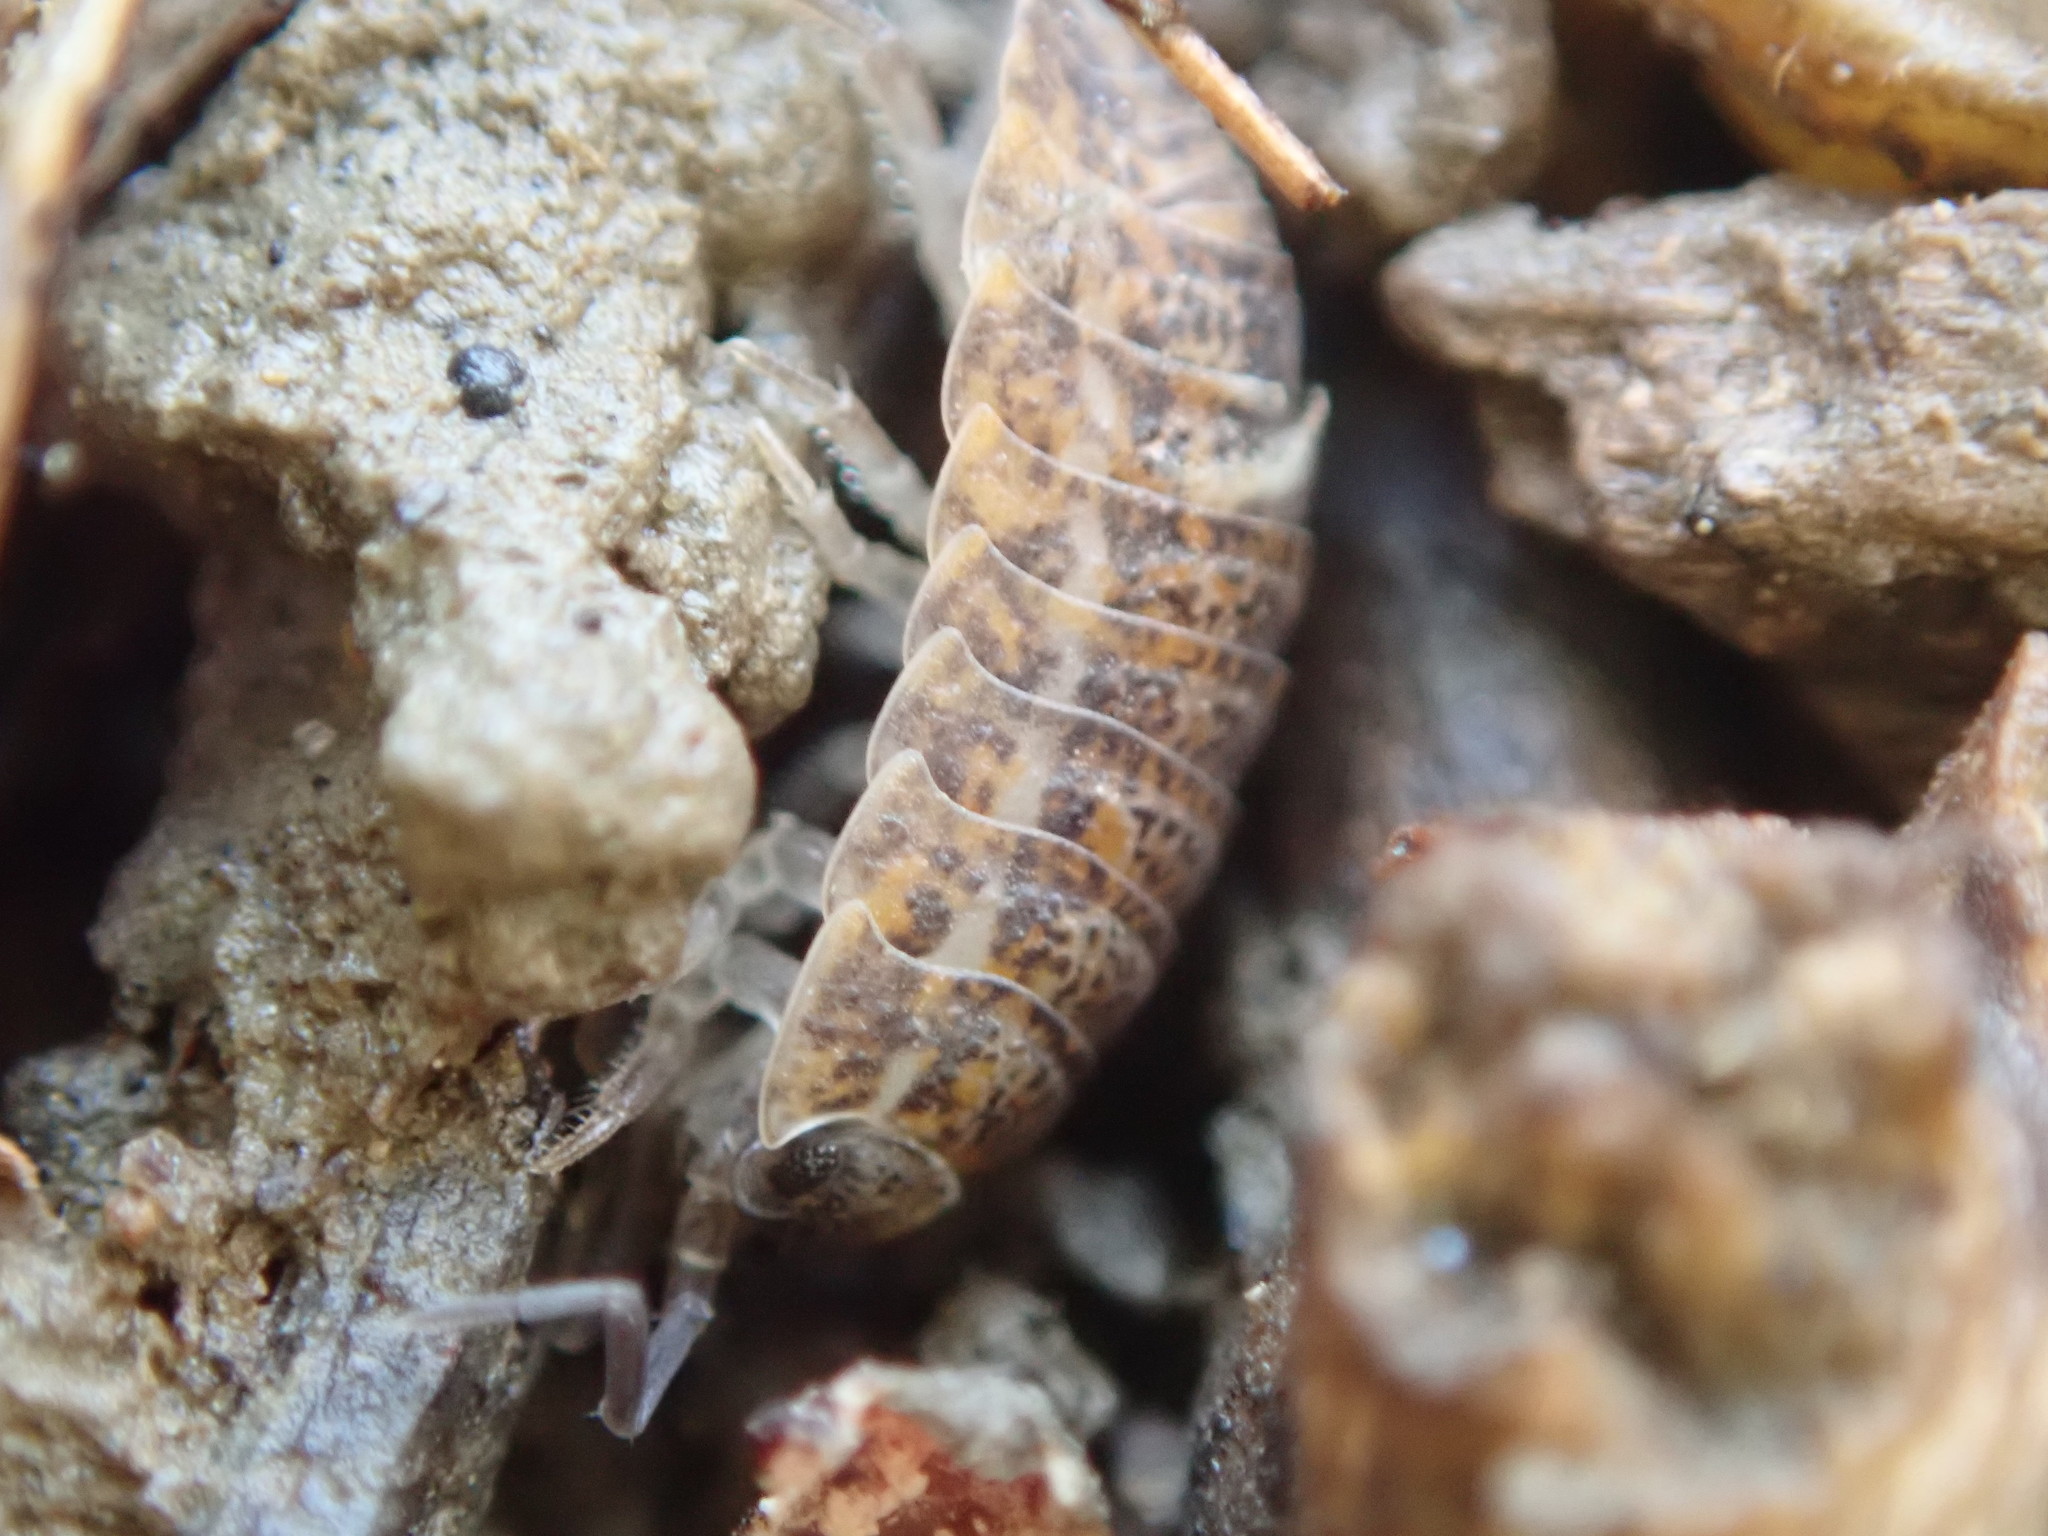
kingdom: Animalia
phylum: Arthropoda
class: Malacostraca
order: Isopoda
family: Trachelipodidae
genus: Trachelipus
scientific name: Trachelipus rathkii
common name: Isopod
